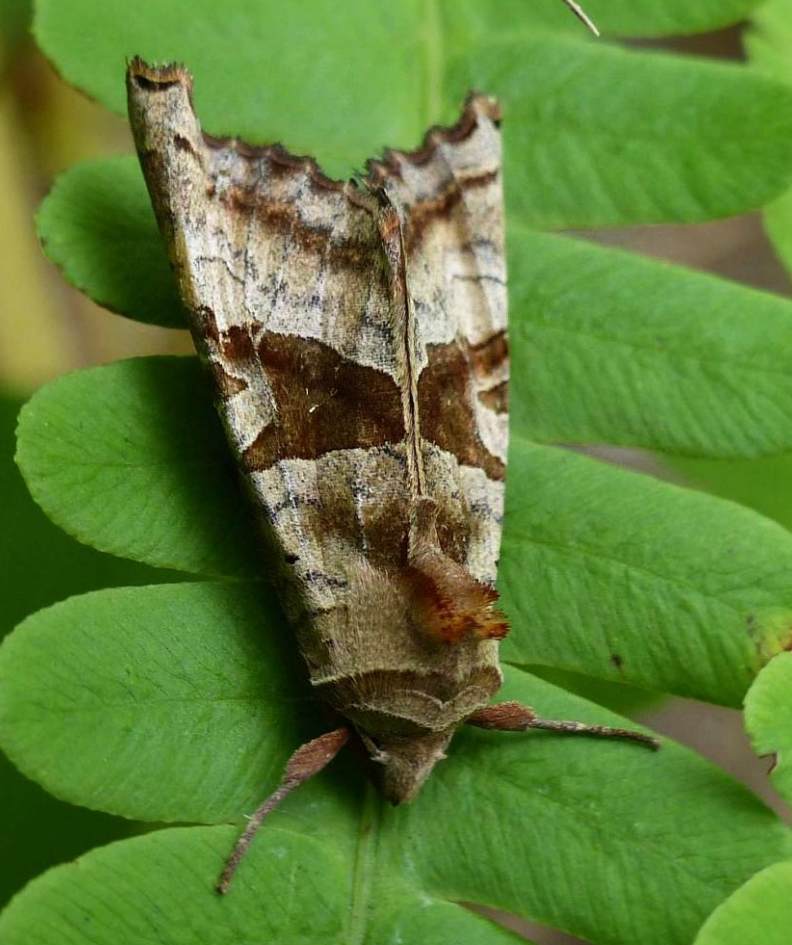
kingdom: Animalia
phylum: Arthropoda
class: Insecta
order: Lepidoptera
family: Noctuidae
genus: Phlogophora
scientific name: Phlogophora periculosa
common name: Brown angle shades
